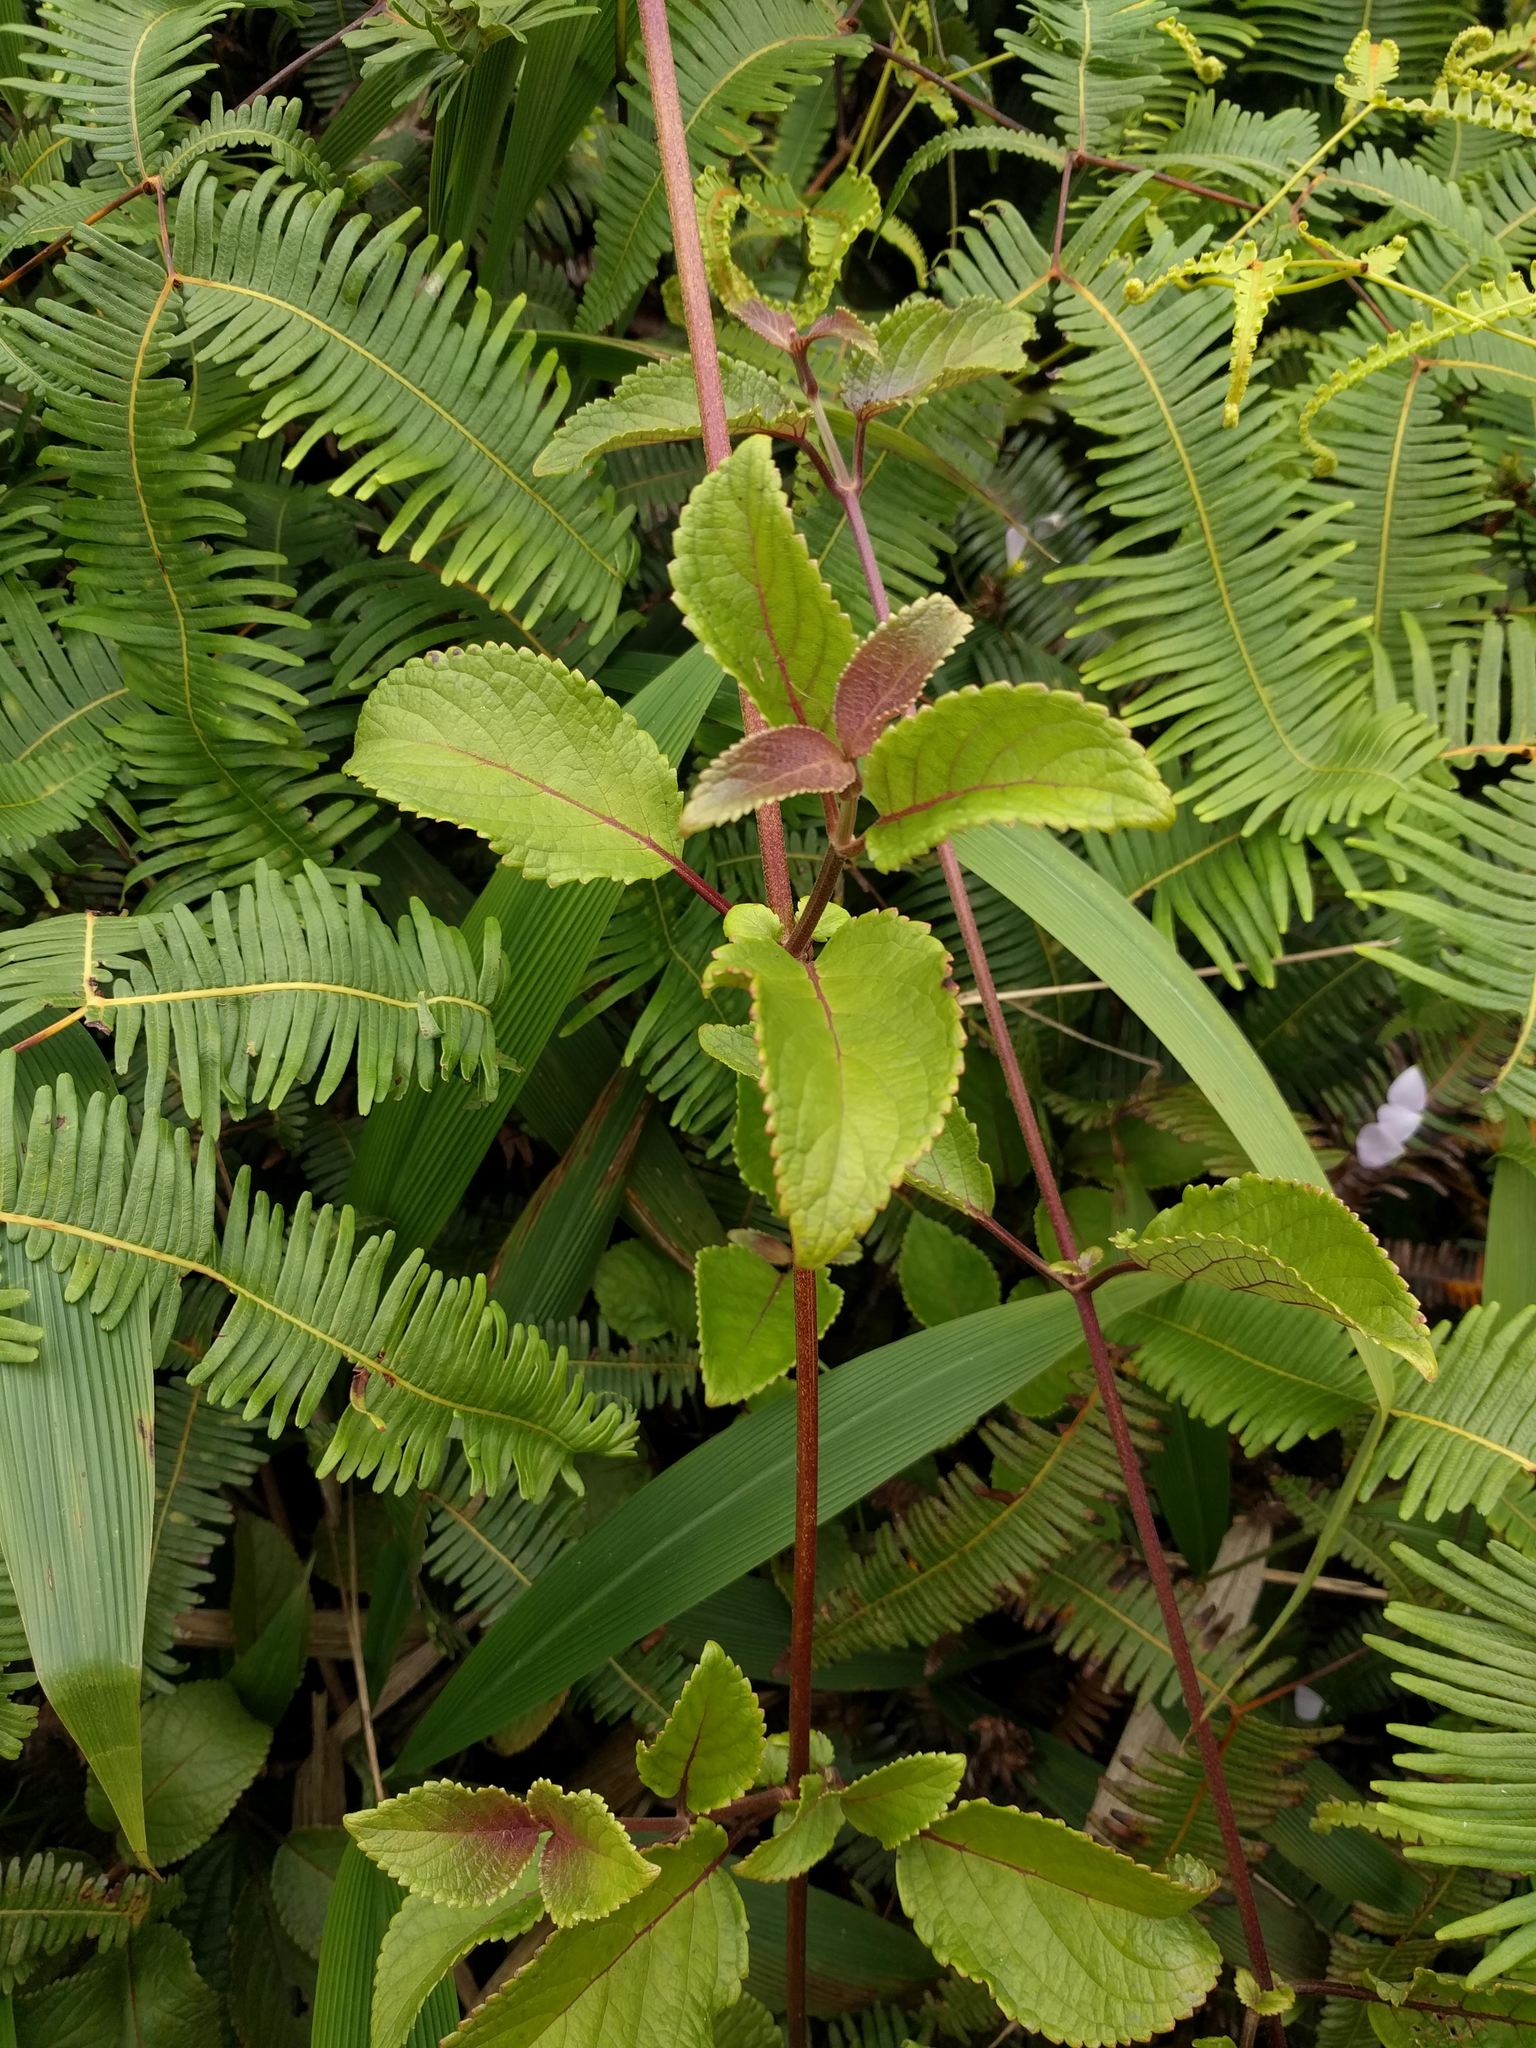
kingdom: Plantae
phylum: Tracheophyta
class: Magnoliopsida
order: Lamiales
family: Lamiaceae
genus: Phyllostegia
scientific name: Phyllostegia grandiflora
